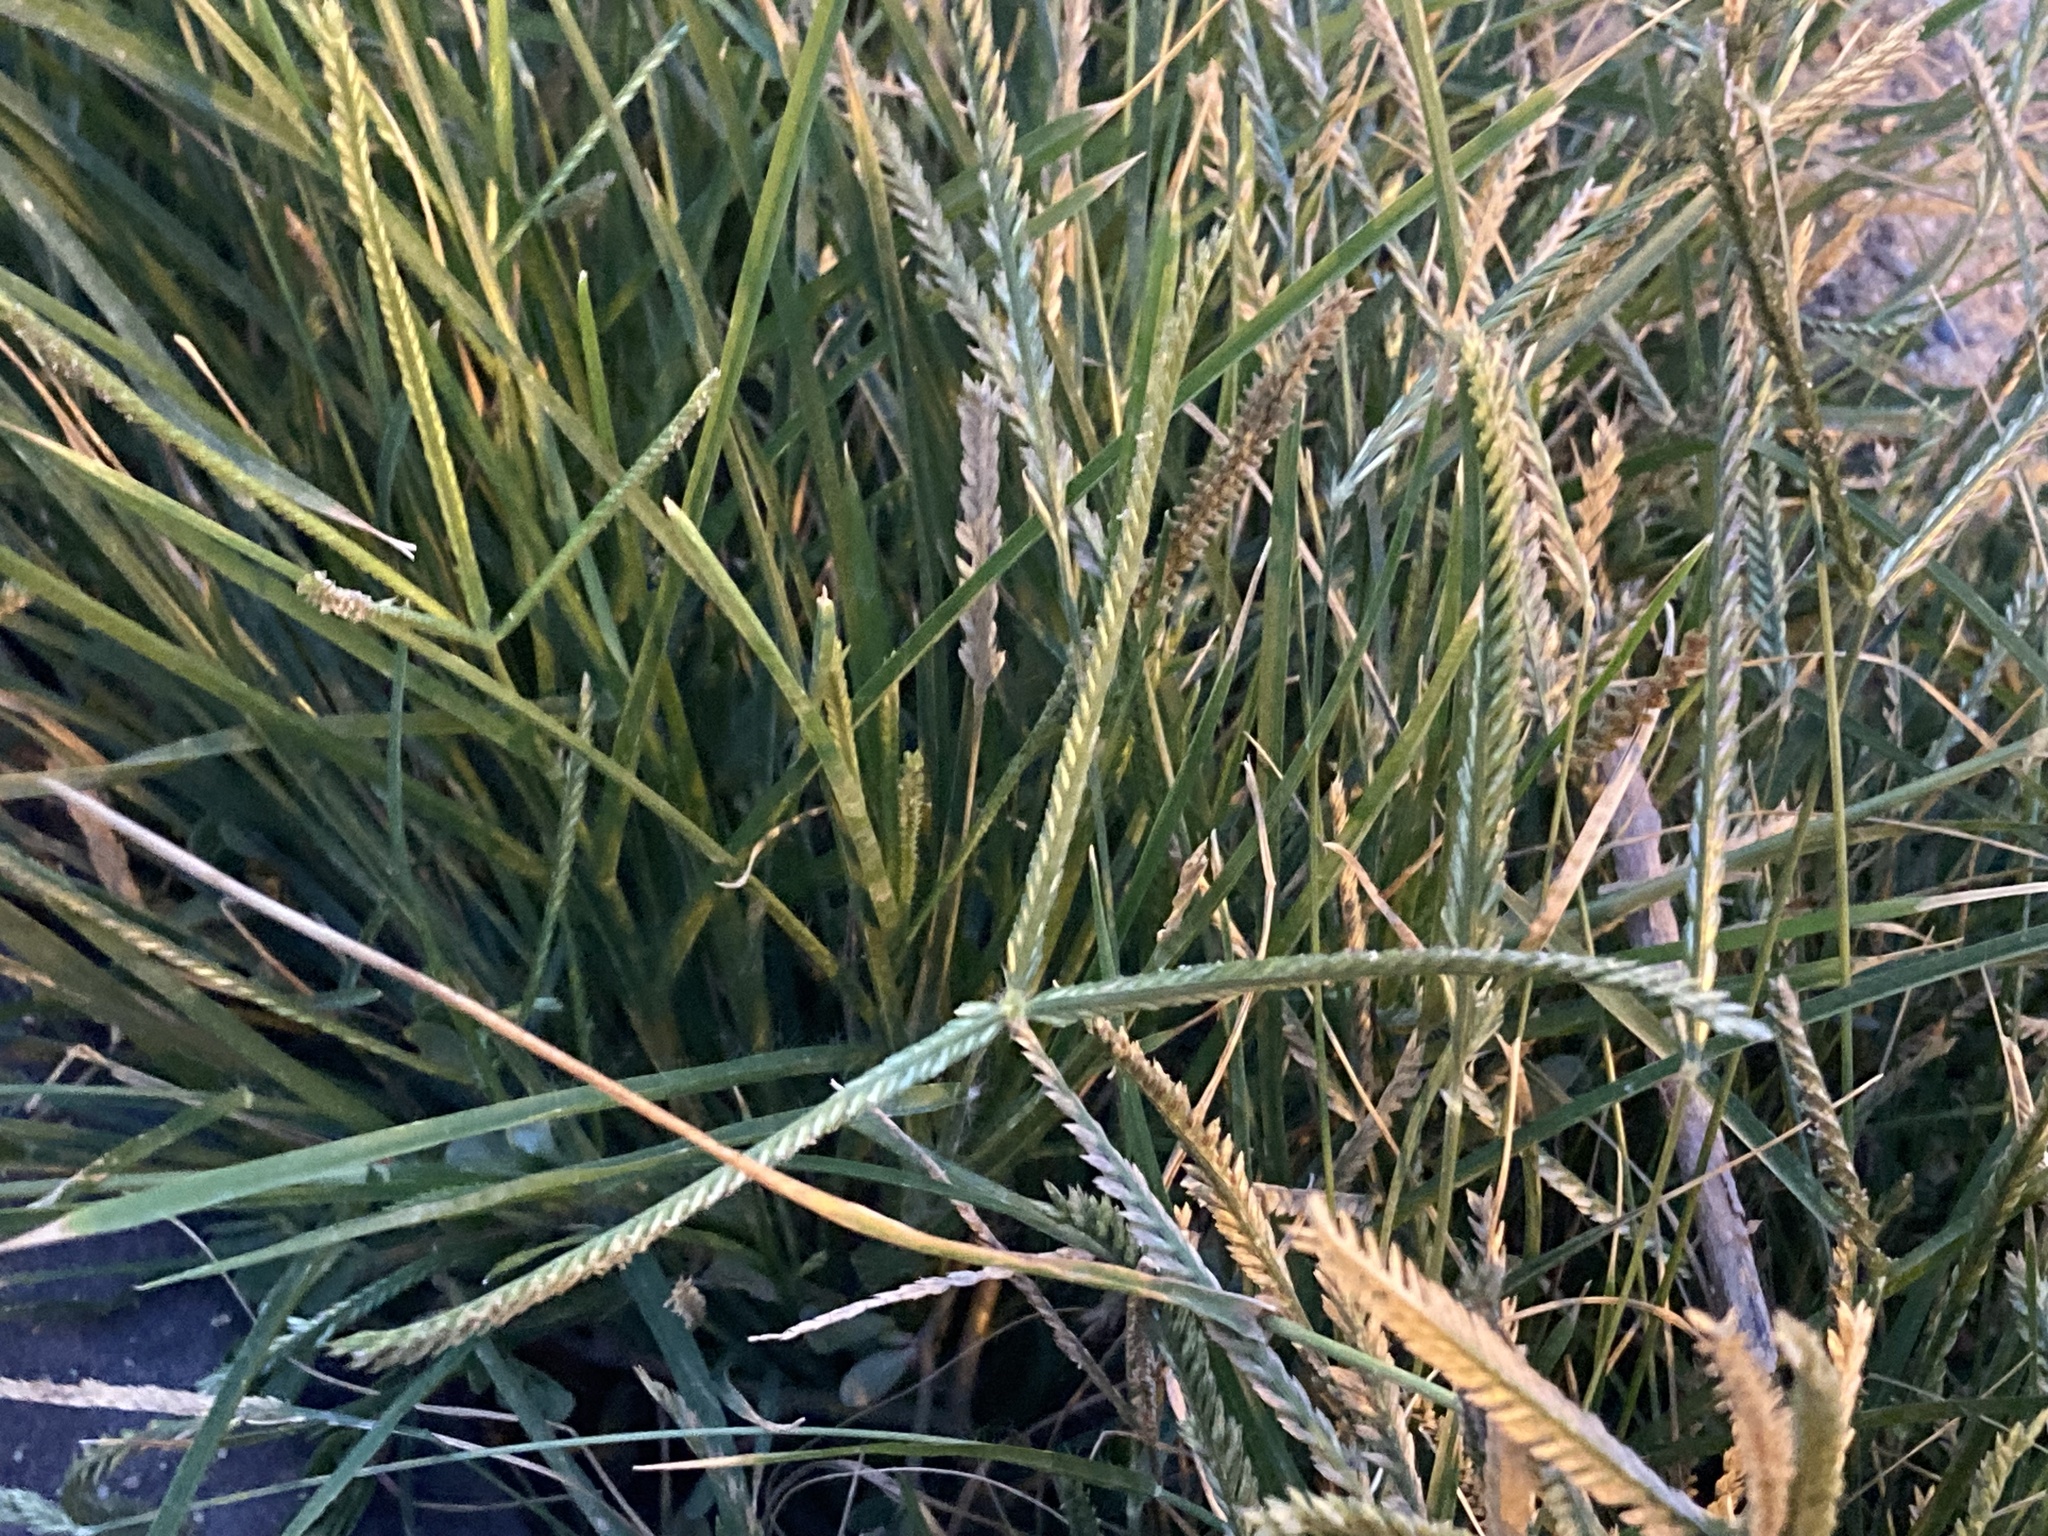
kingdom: Plantae
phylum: Tracheophyta
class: Liliopsida
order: Poales
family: Poaceae
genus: Eleusine
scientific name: Eleusine indica
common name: Yard-grass
